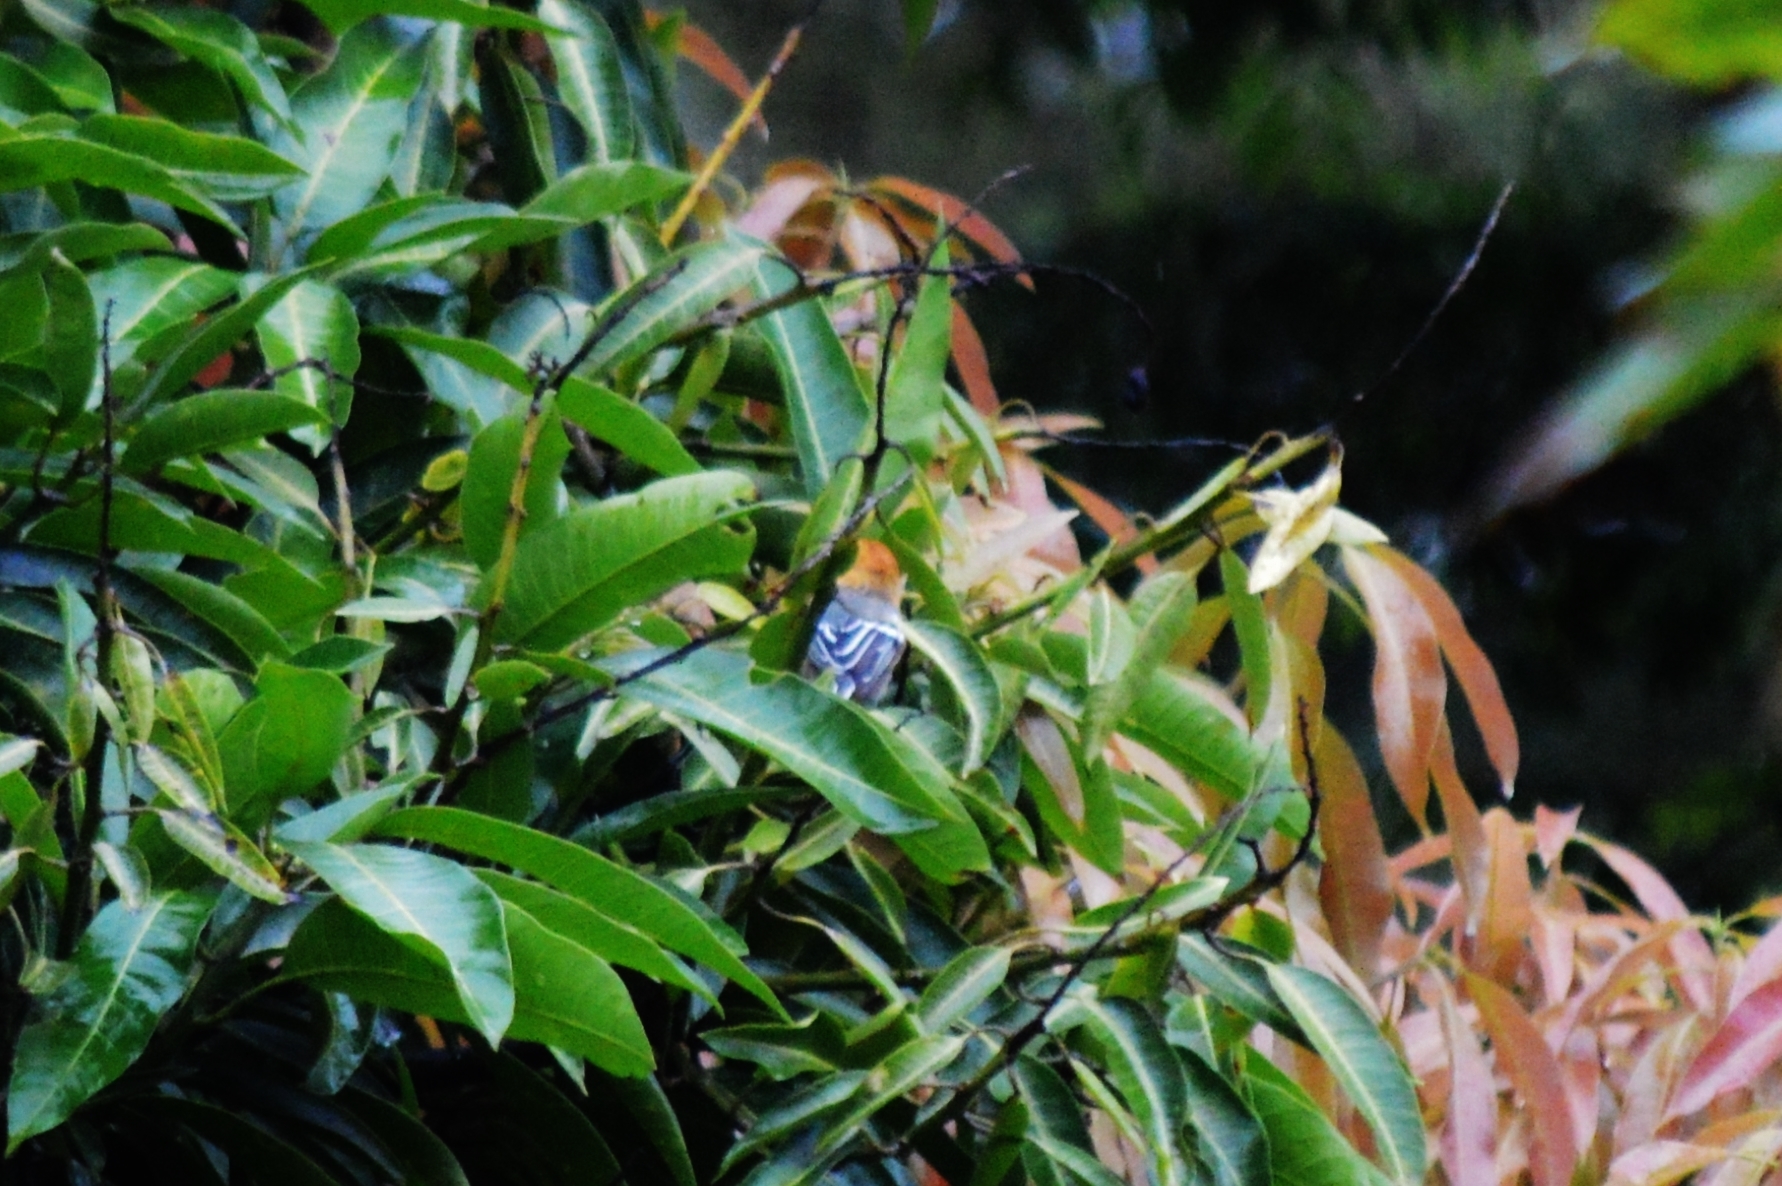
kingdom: Animalia
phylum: Chordata
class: Aves
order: Passeriformes
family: Thamnophilidae
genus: Herpsilochmus
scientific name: Herpsilochmus longirostris
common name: Large-billed antwren
